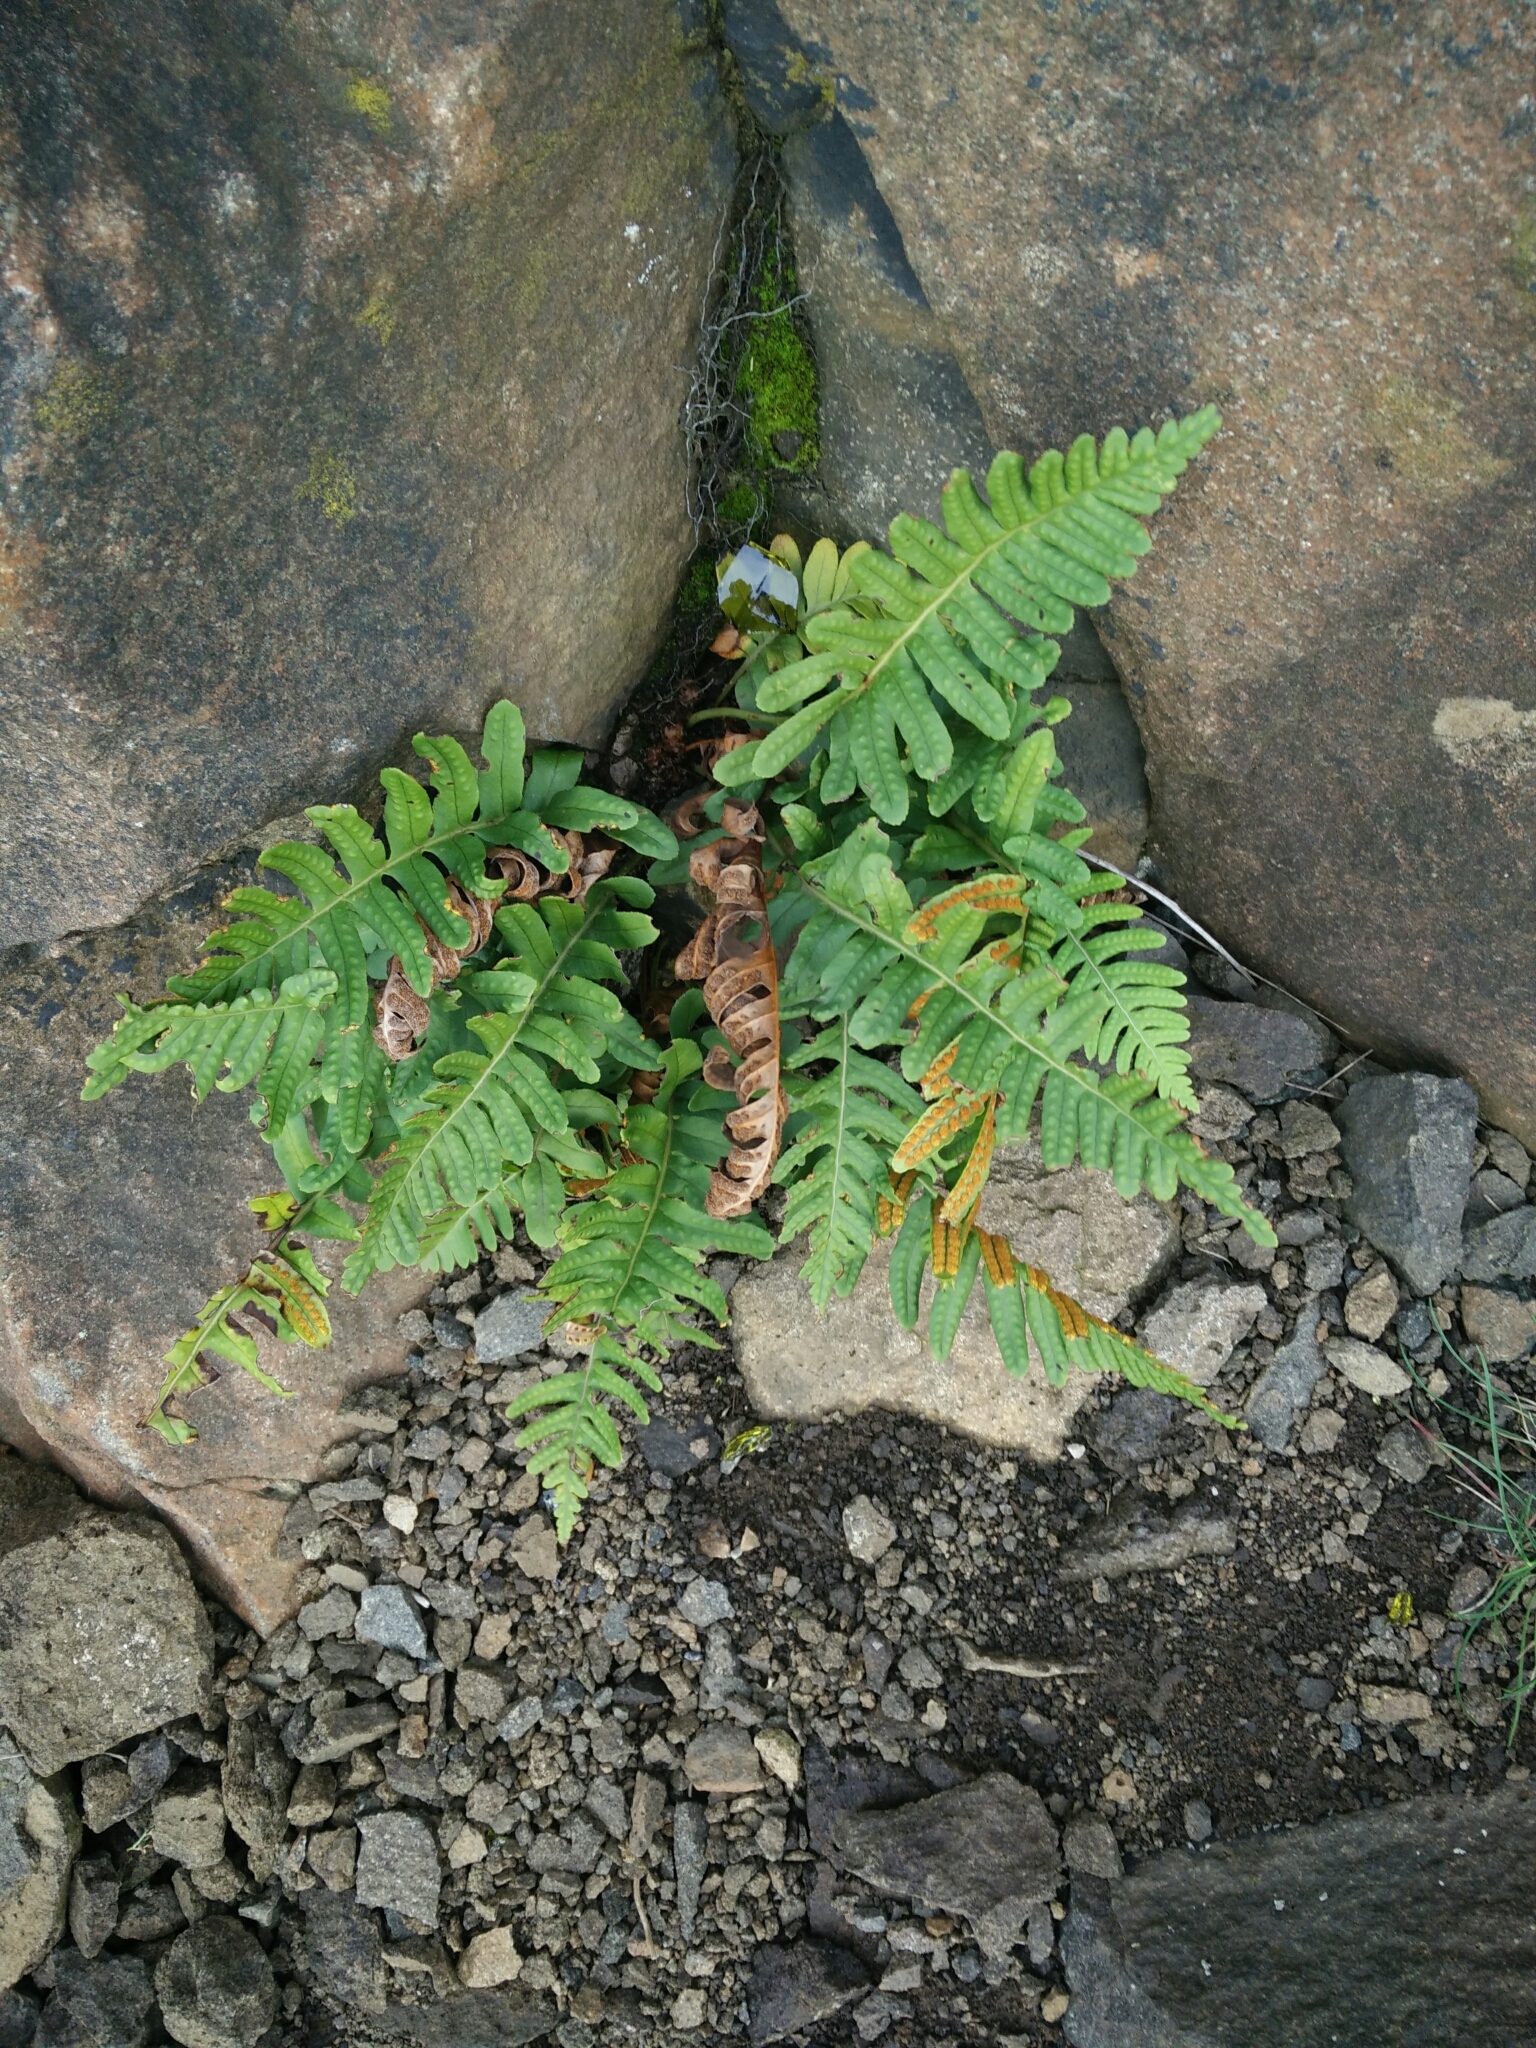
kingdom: Plantae
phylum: Tracheophyta
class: Polypodiopsida
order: Polypodiales
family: Polypodiaceae
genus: Polypodium
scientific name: Polypodium vulgare
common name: Common polypody
